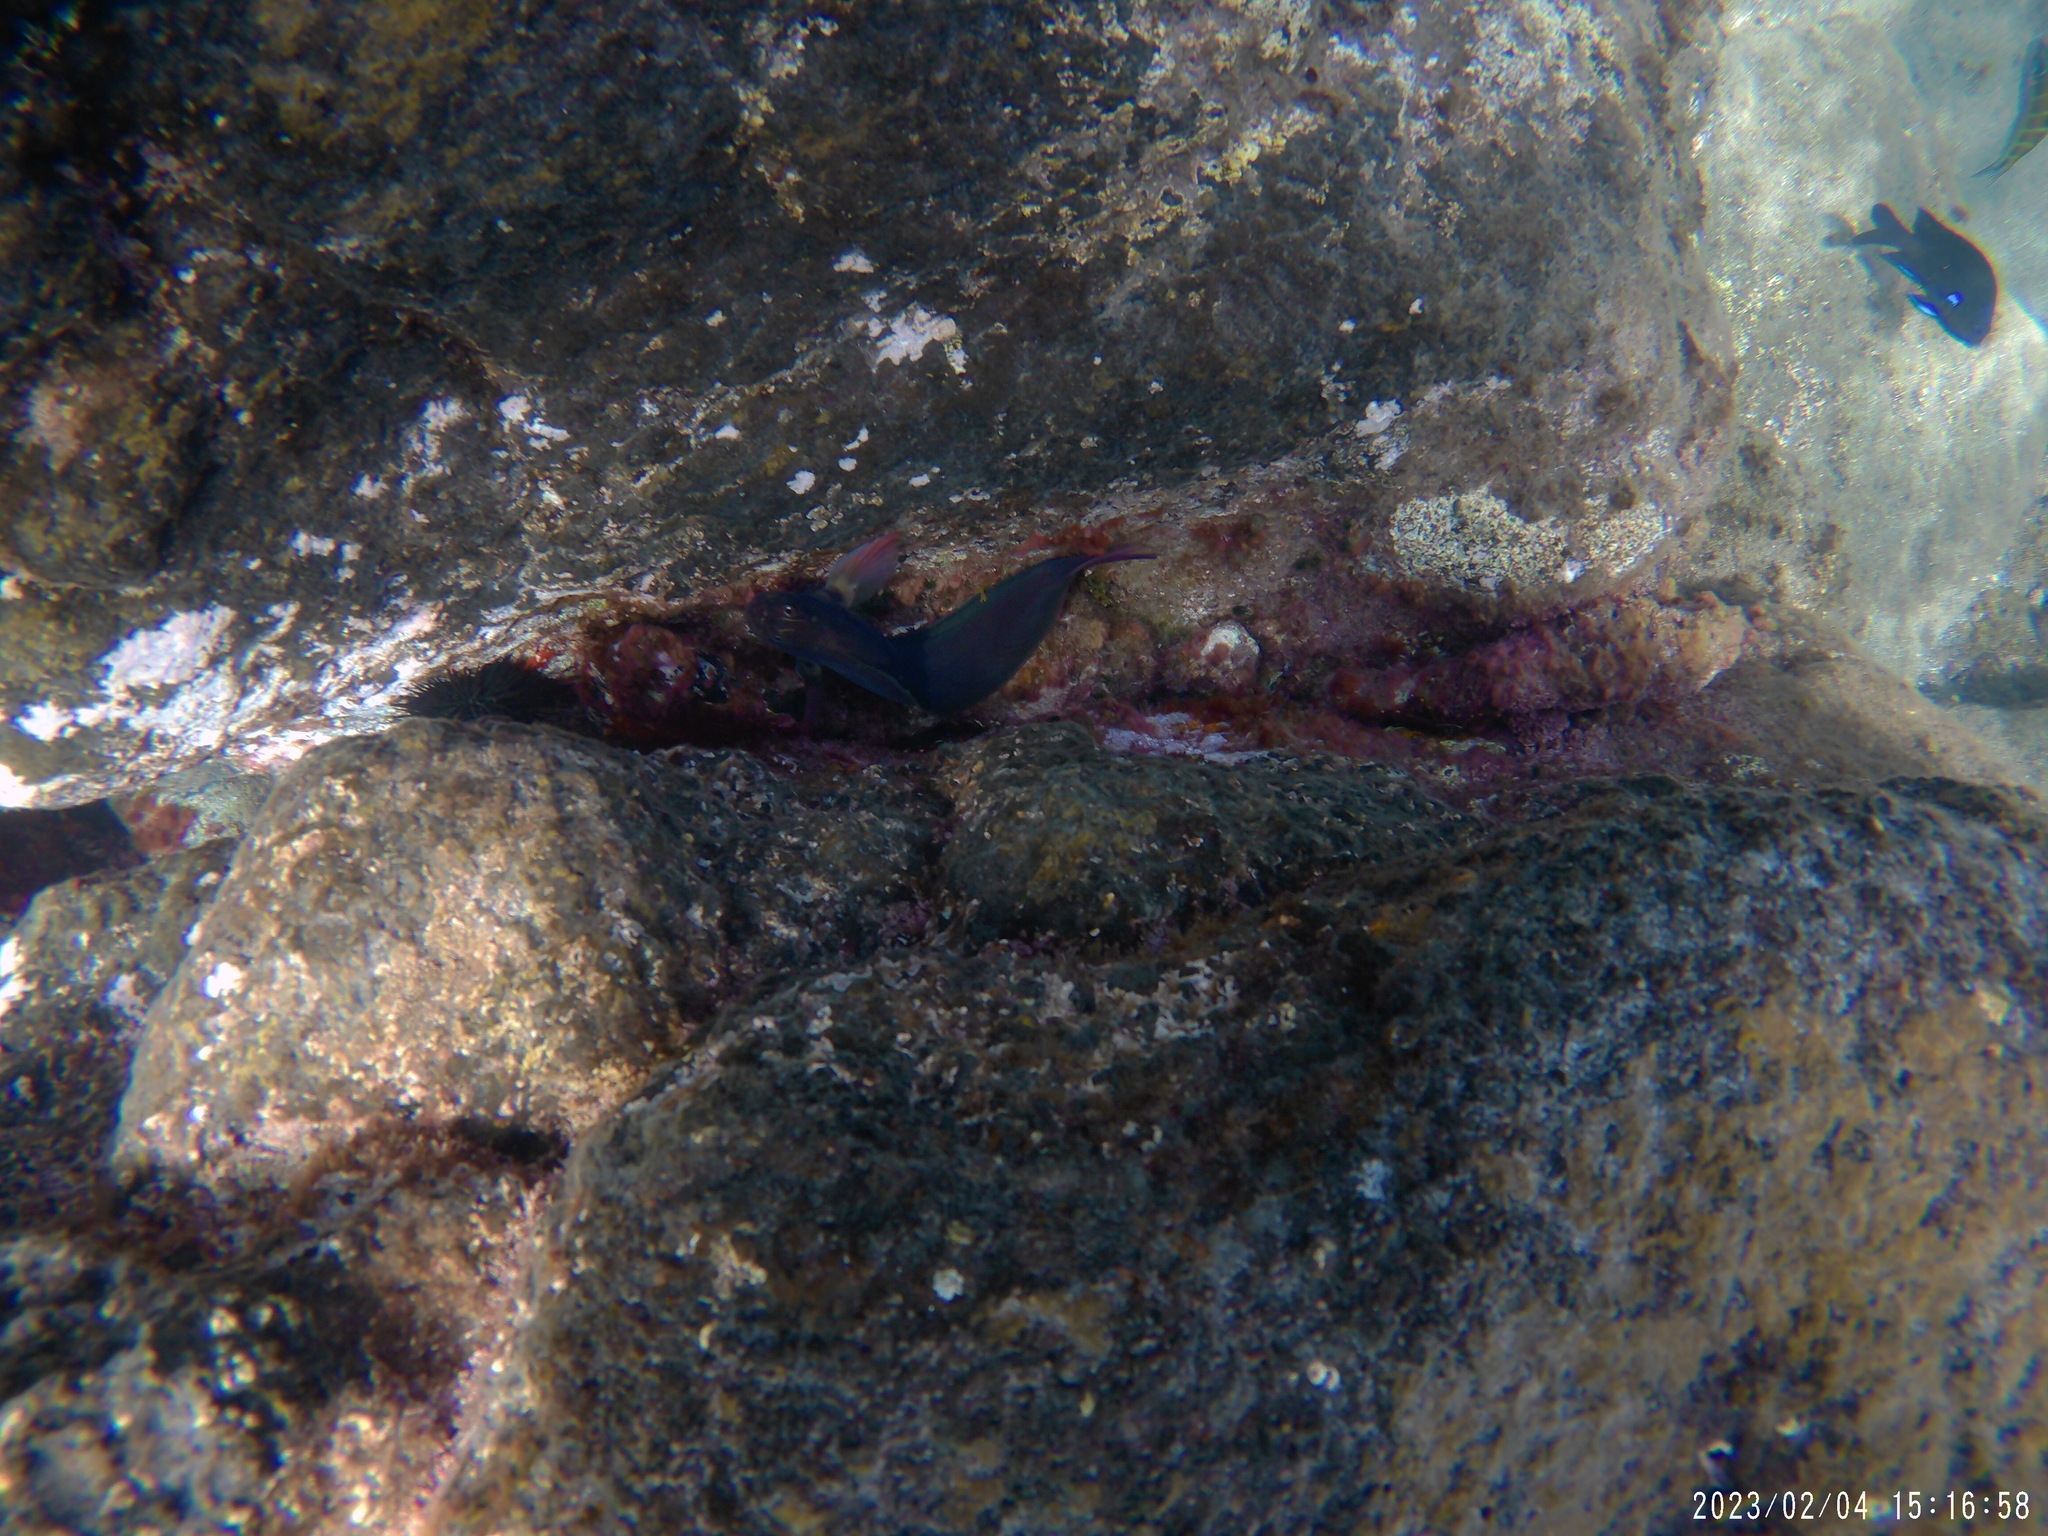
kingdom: Animalia
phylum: Chordata
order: Perciformes
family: Blenniidae
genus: Ophioblennius
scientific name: Ophioblennius atlanticus
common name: Redlip blenny
